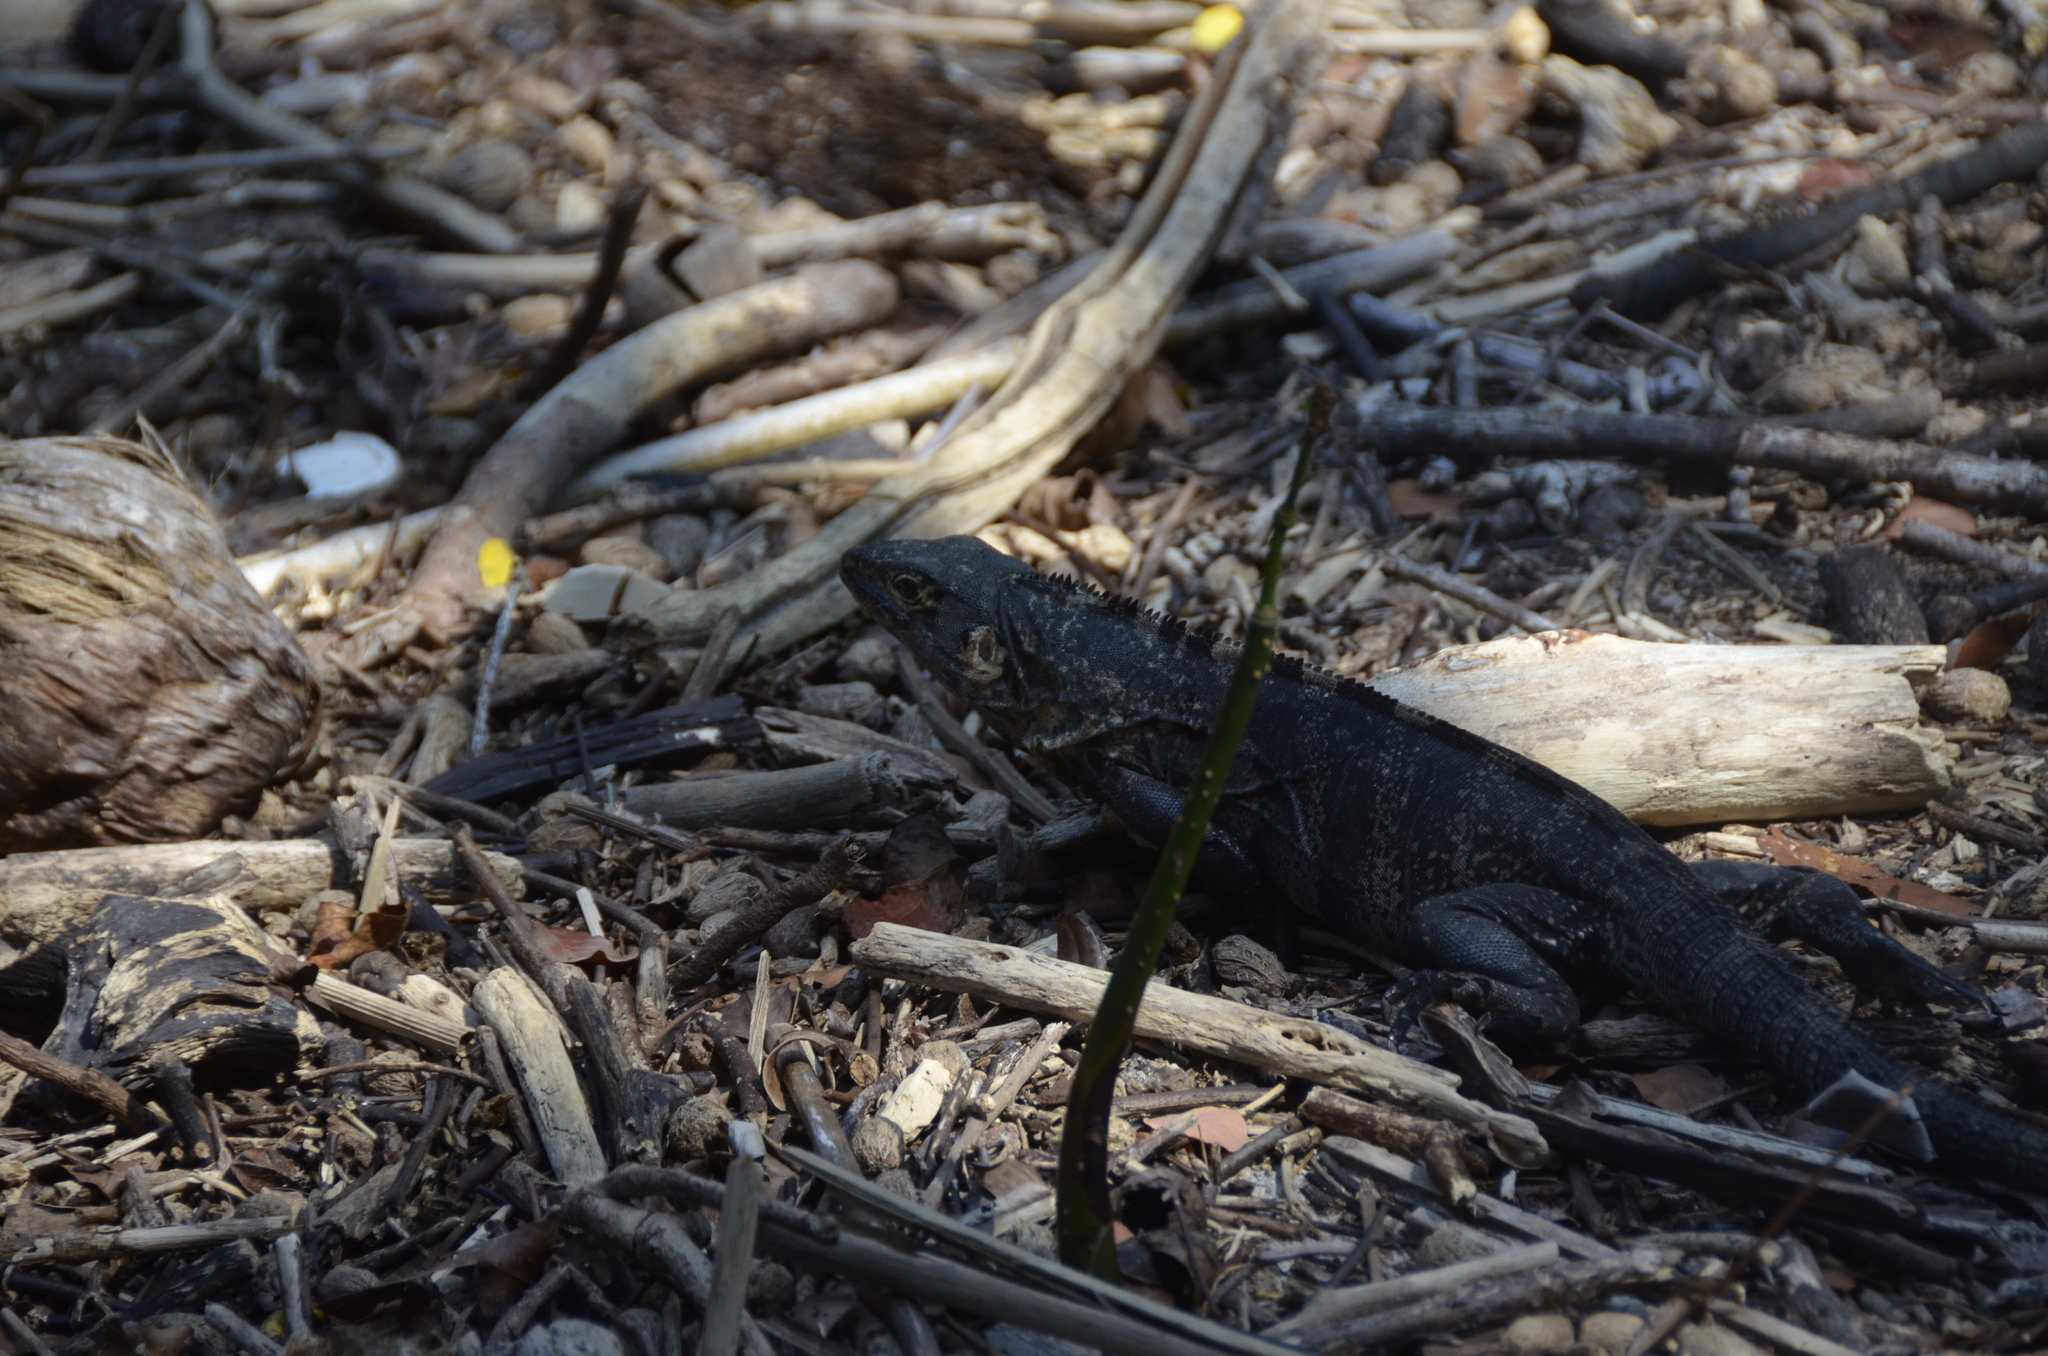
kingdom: Animalia
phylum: Chordata
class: Squamata
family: Iguanidae
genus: Ctenosaura
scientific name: Ctenosaura similis
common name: Black spiny-tailed iguana
